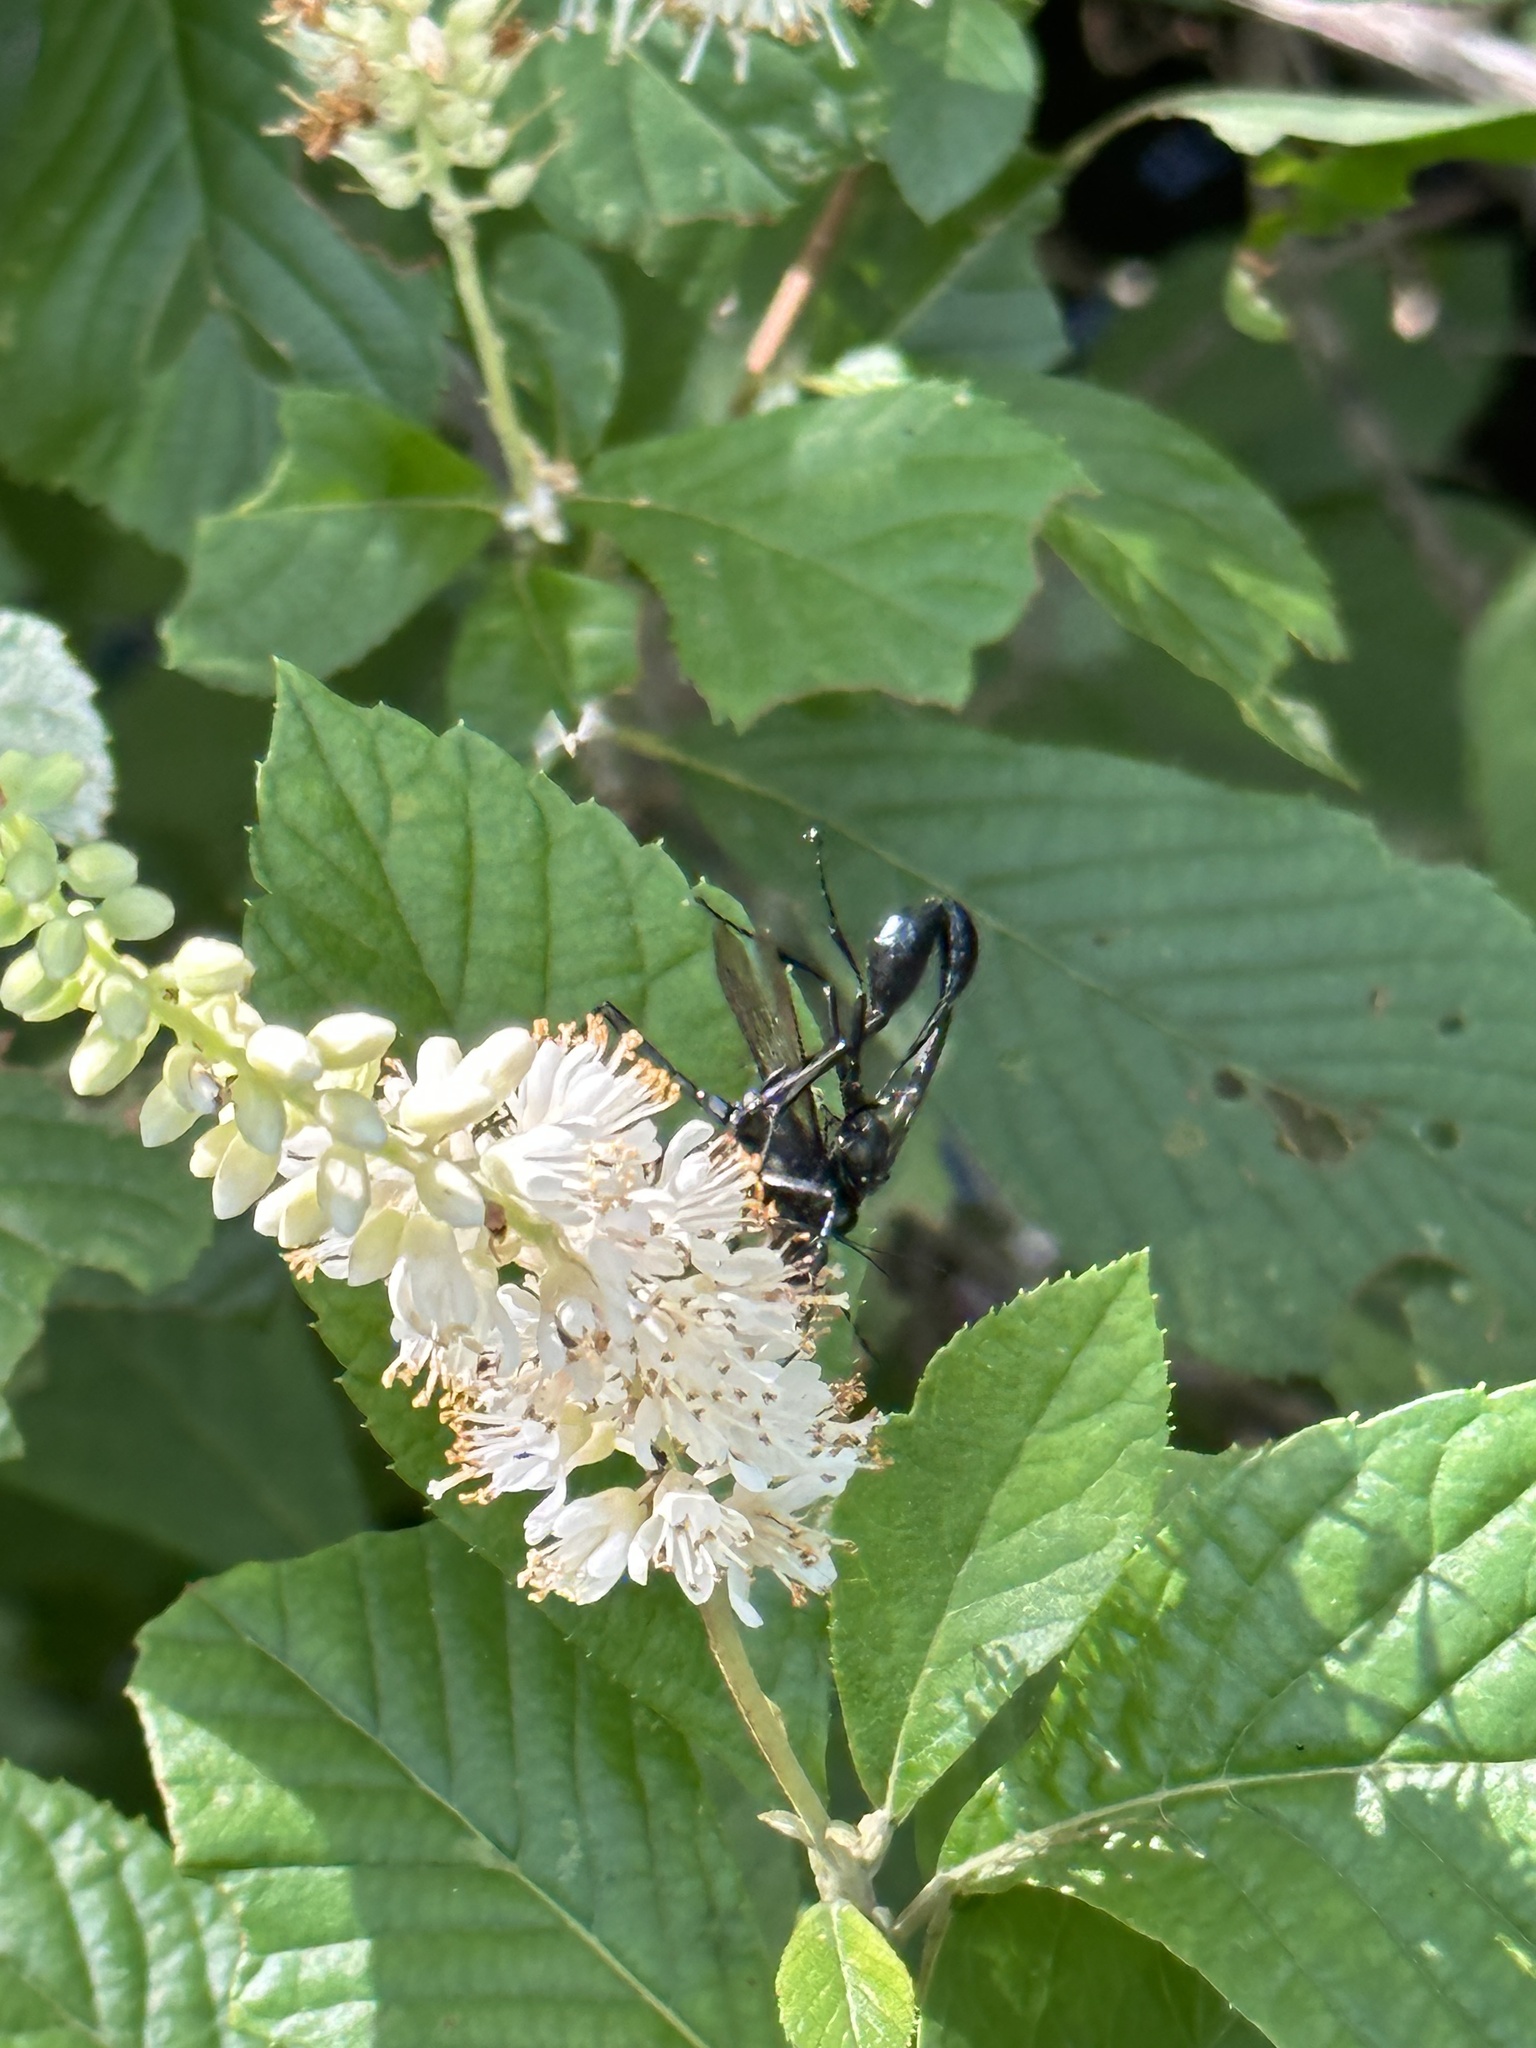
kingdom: Animalia
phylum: Arthropoda
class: Insecta
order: Hymenoptera
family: Sphecidae
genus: Eremnophila
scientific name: Eremnophila aureonotata
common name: Gold-marked thread-waisted wasp
